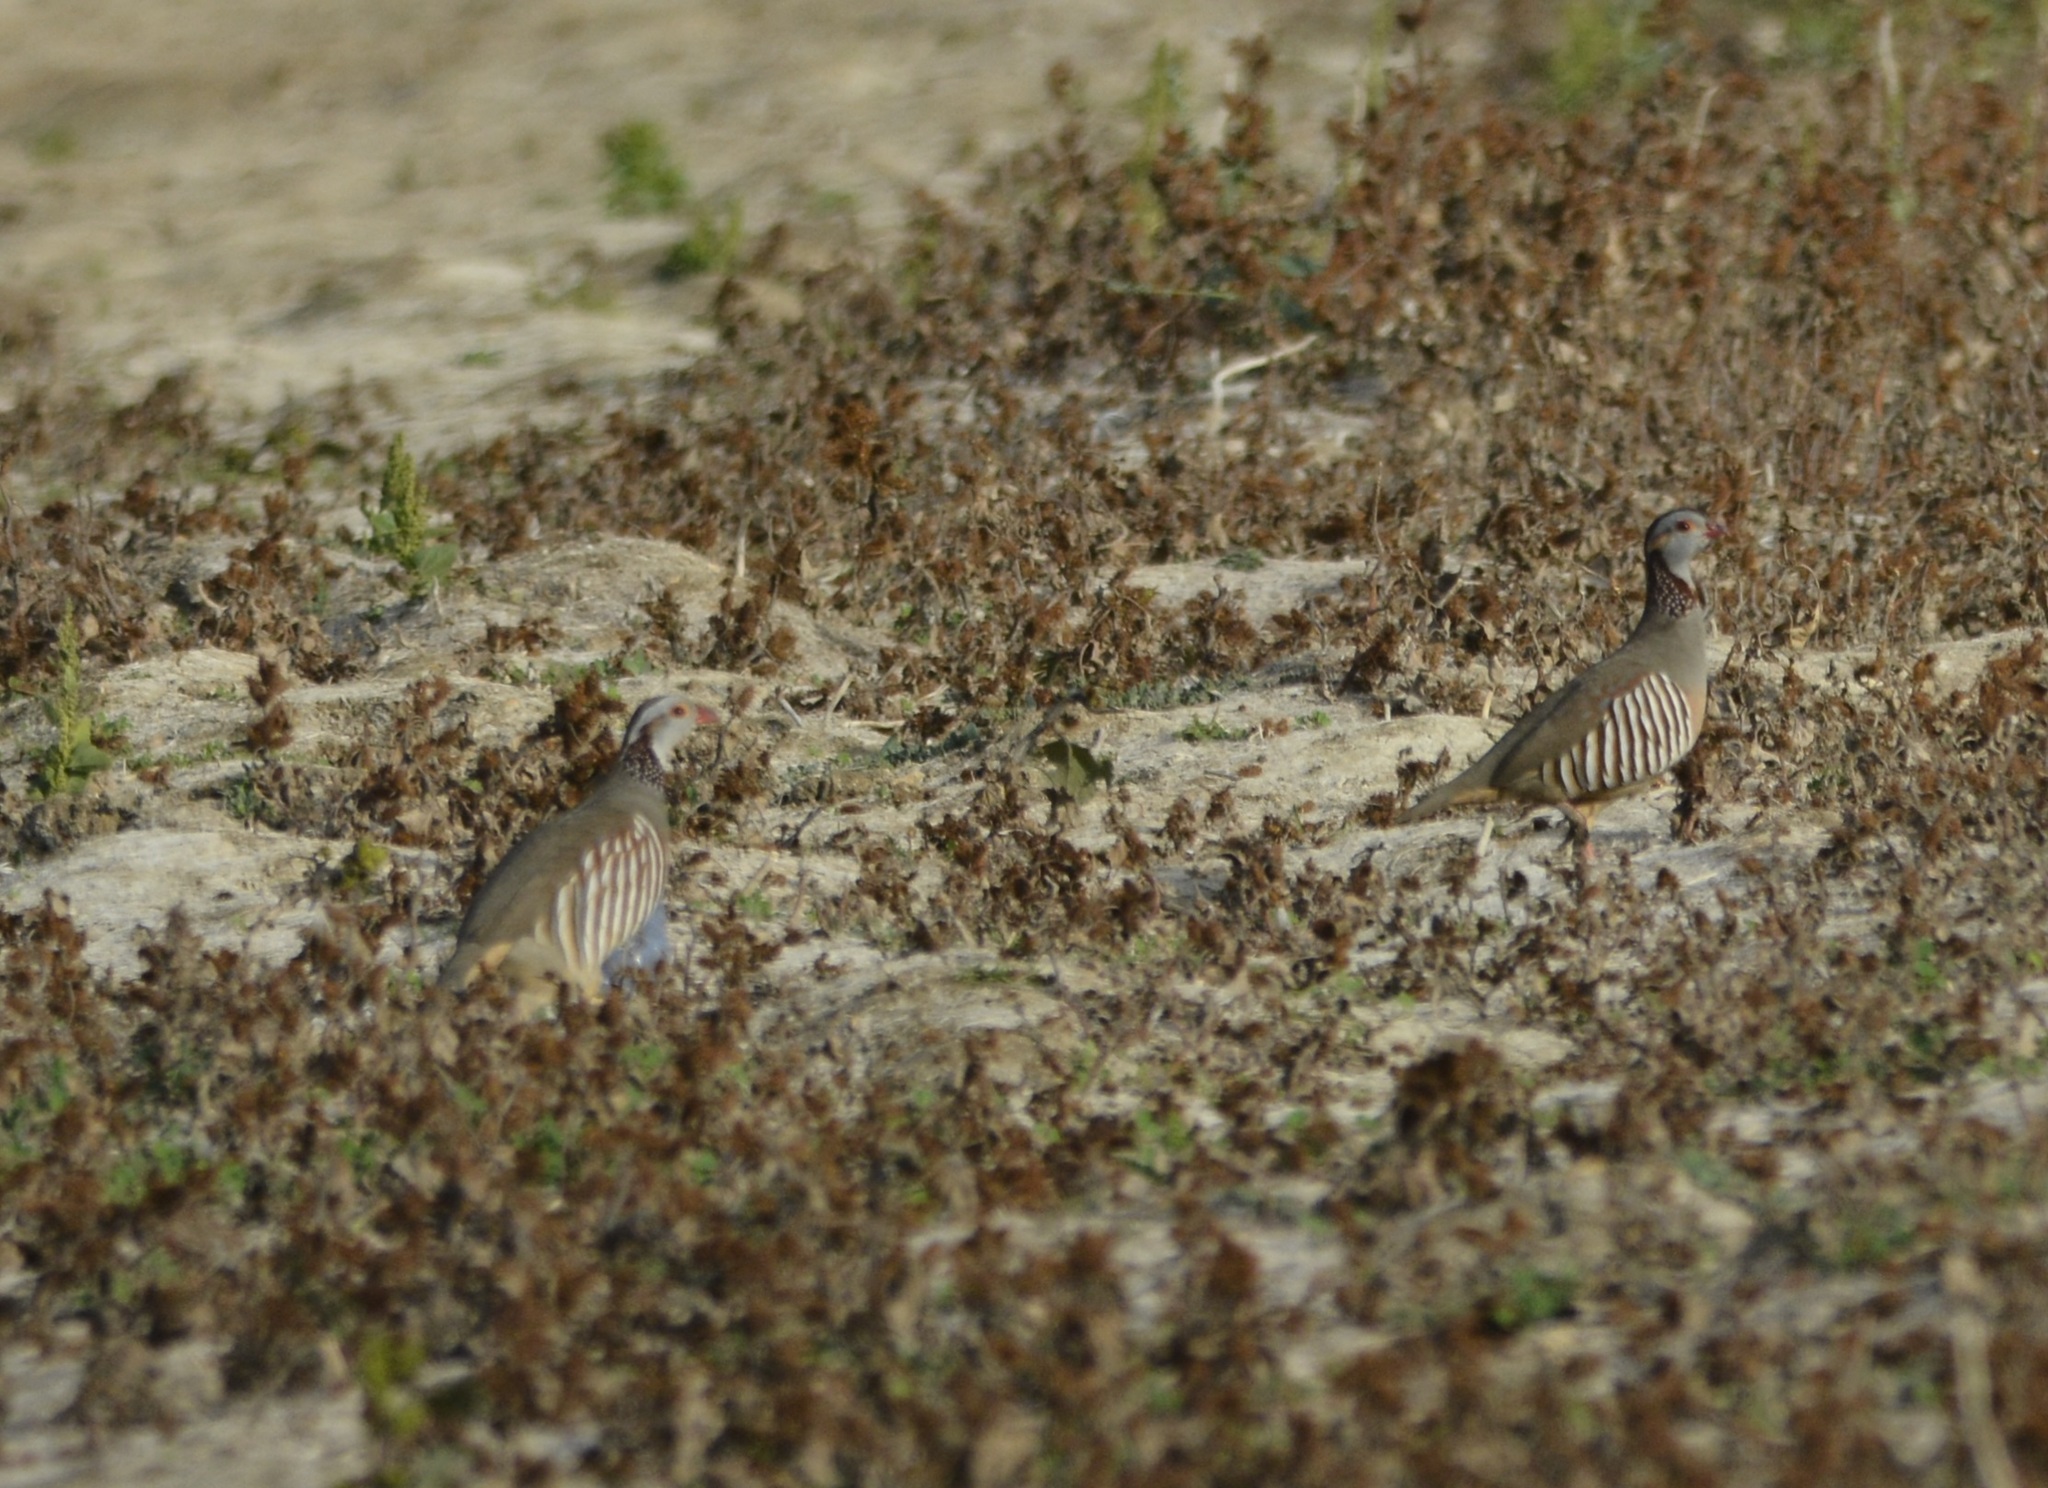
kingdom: Animalia
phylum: Chordata
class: Aves
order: Galliformes
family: Phasianidae
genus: Alectoris
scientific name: Alectoris barbara
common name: Barbary partridge
